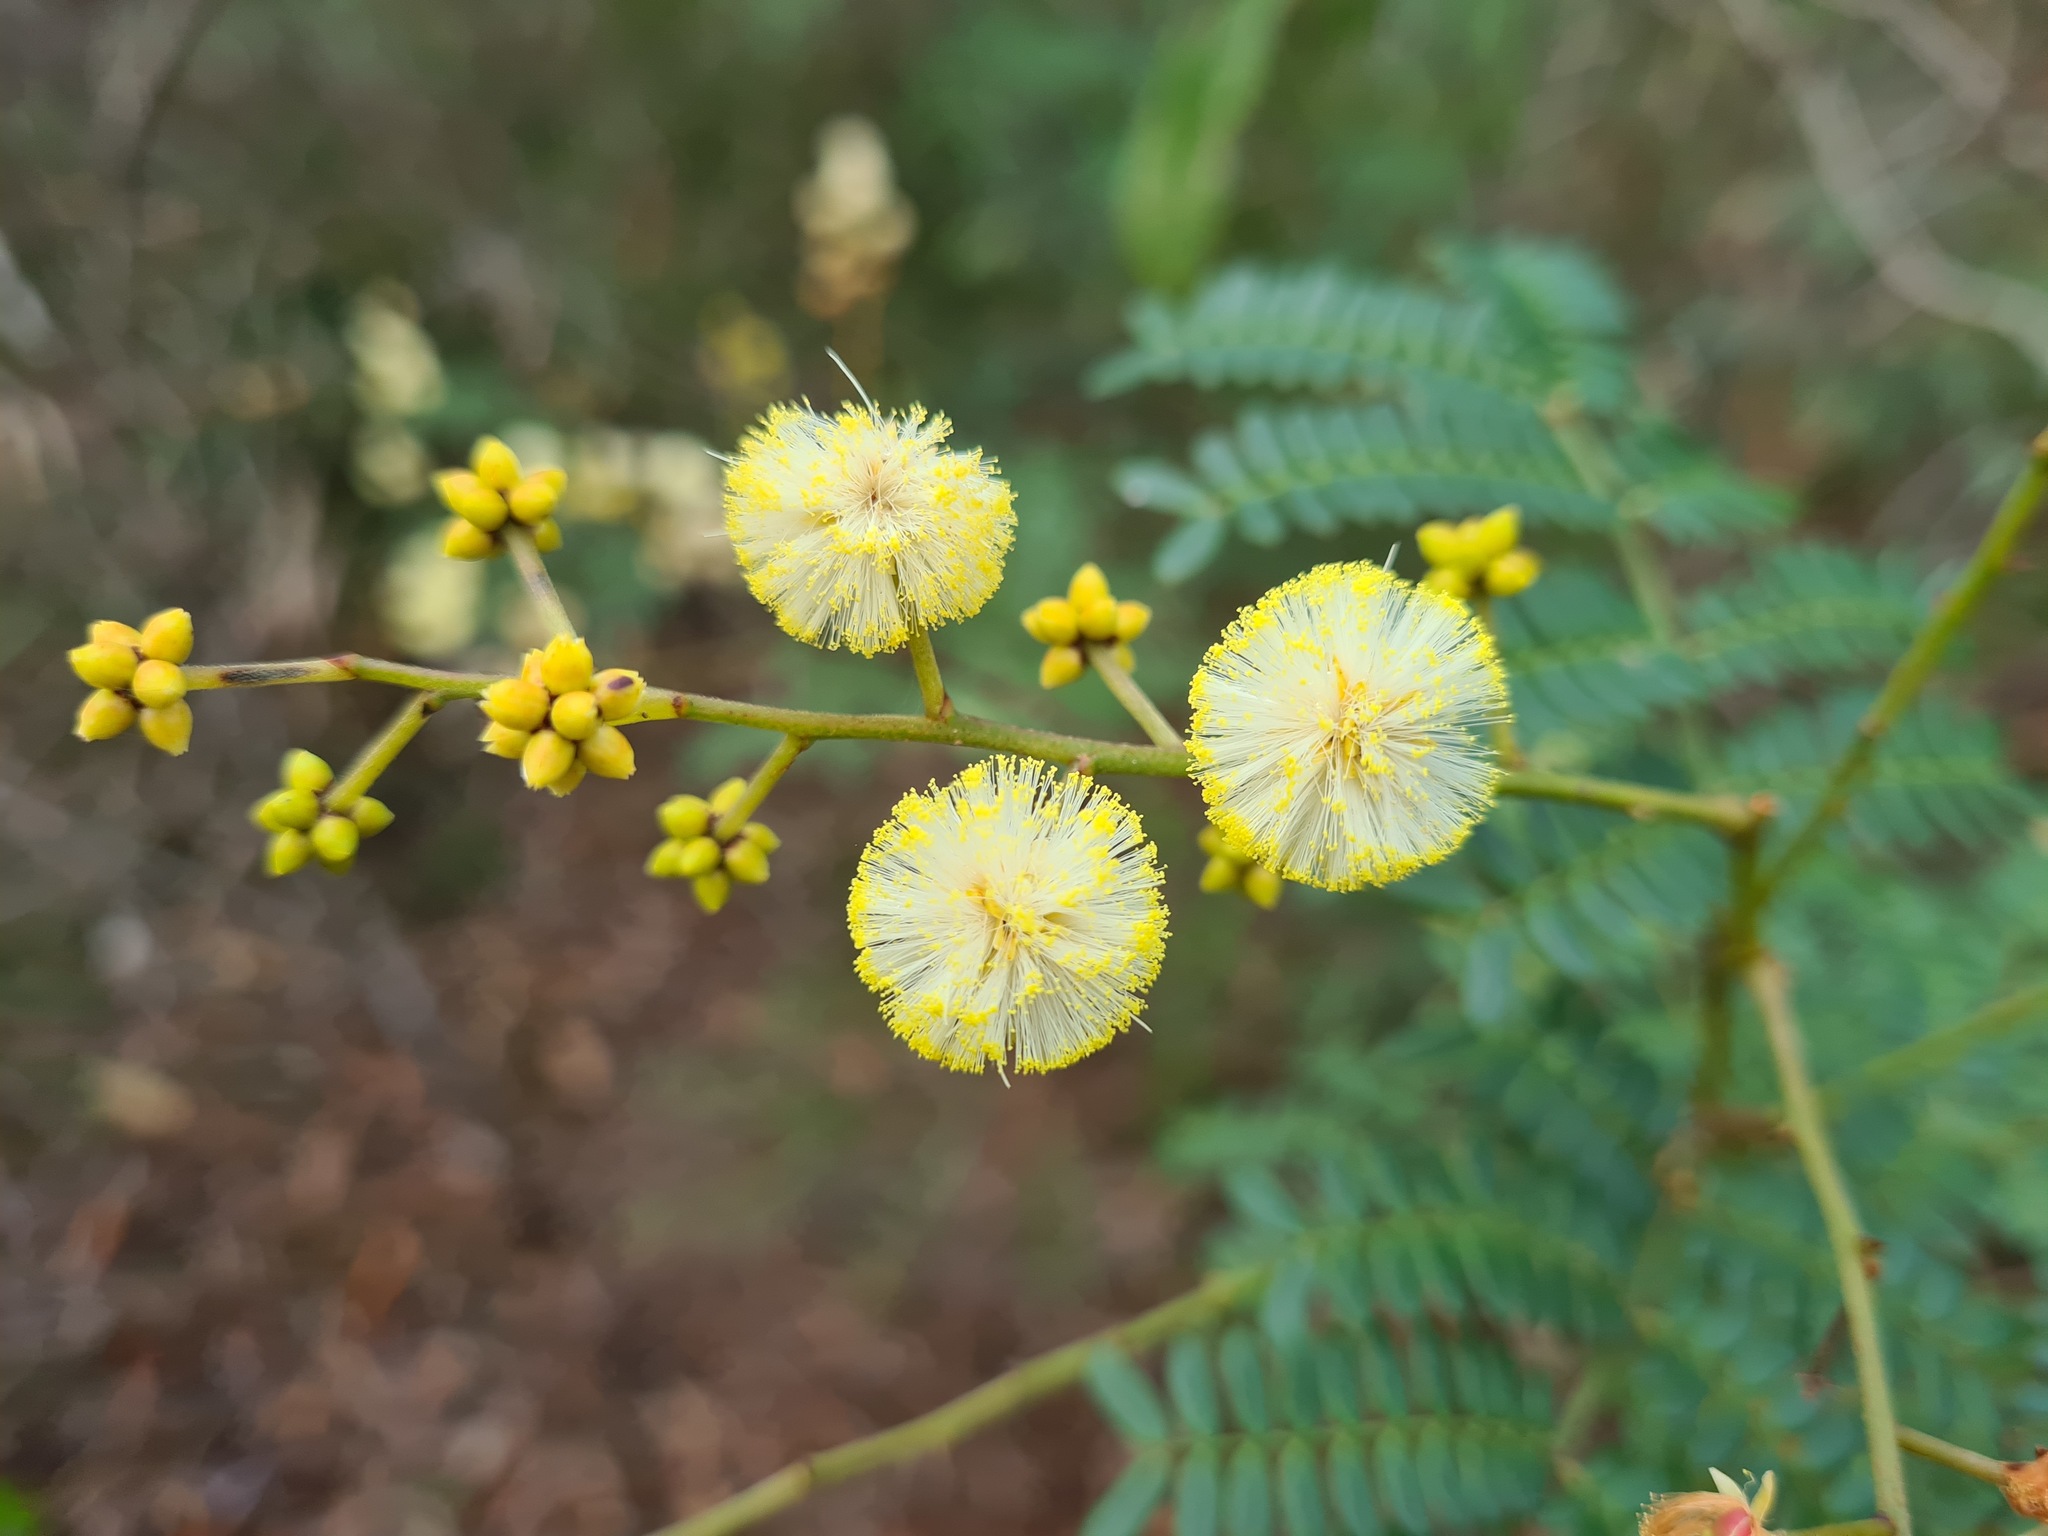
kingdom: Plantae
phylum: Tracheophyta
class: Magnoliopsida
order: Fabales
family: Fabaceae
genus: Acacia
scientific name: Acacia terminalis
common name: Cedar wattle
